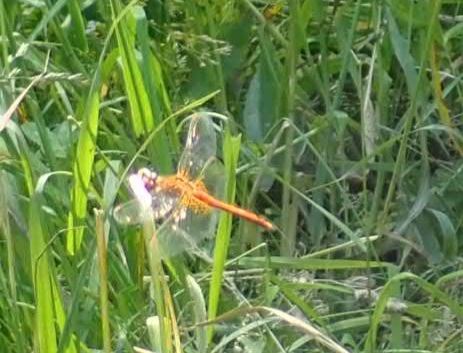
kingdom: Animalia
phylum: Arthropoda
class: Insecta
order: Odonata
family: Libellulidae
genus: Sympetrum
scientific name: Sympetrum flaveolum
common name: Yellow-winged darter
